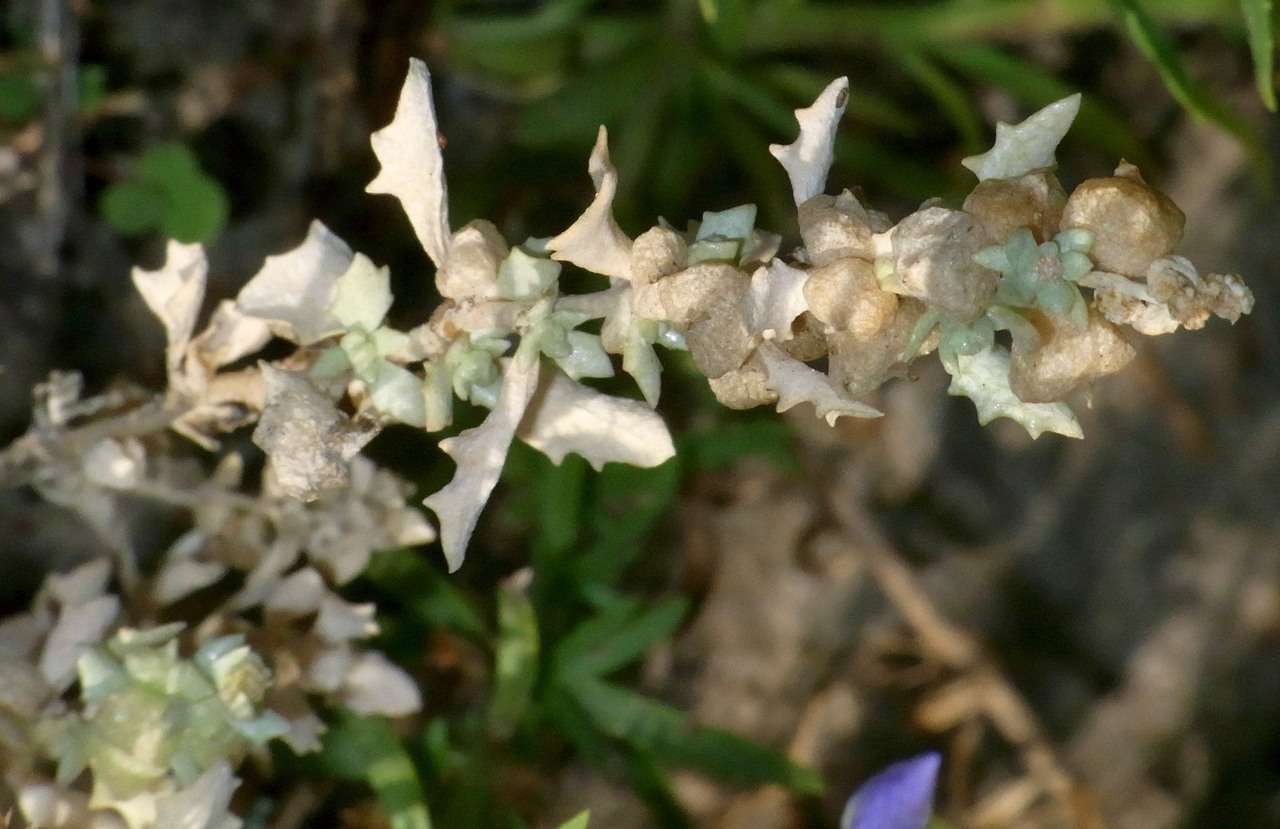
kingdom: Plantae
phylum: Tracheophyta
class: Magnoliopsida
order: Caryophyllales
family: Amaranthaceae
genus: Atriplex
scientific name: Atriplex lindleyi
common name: Lindley's saltbush
